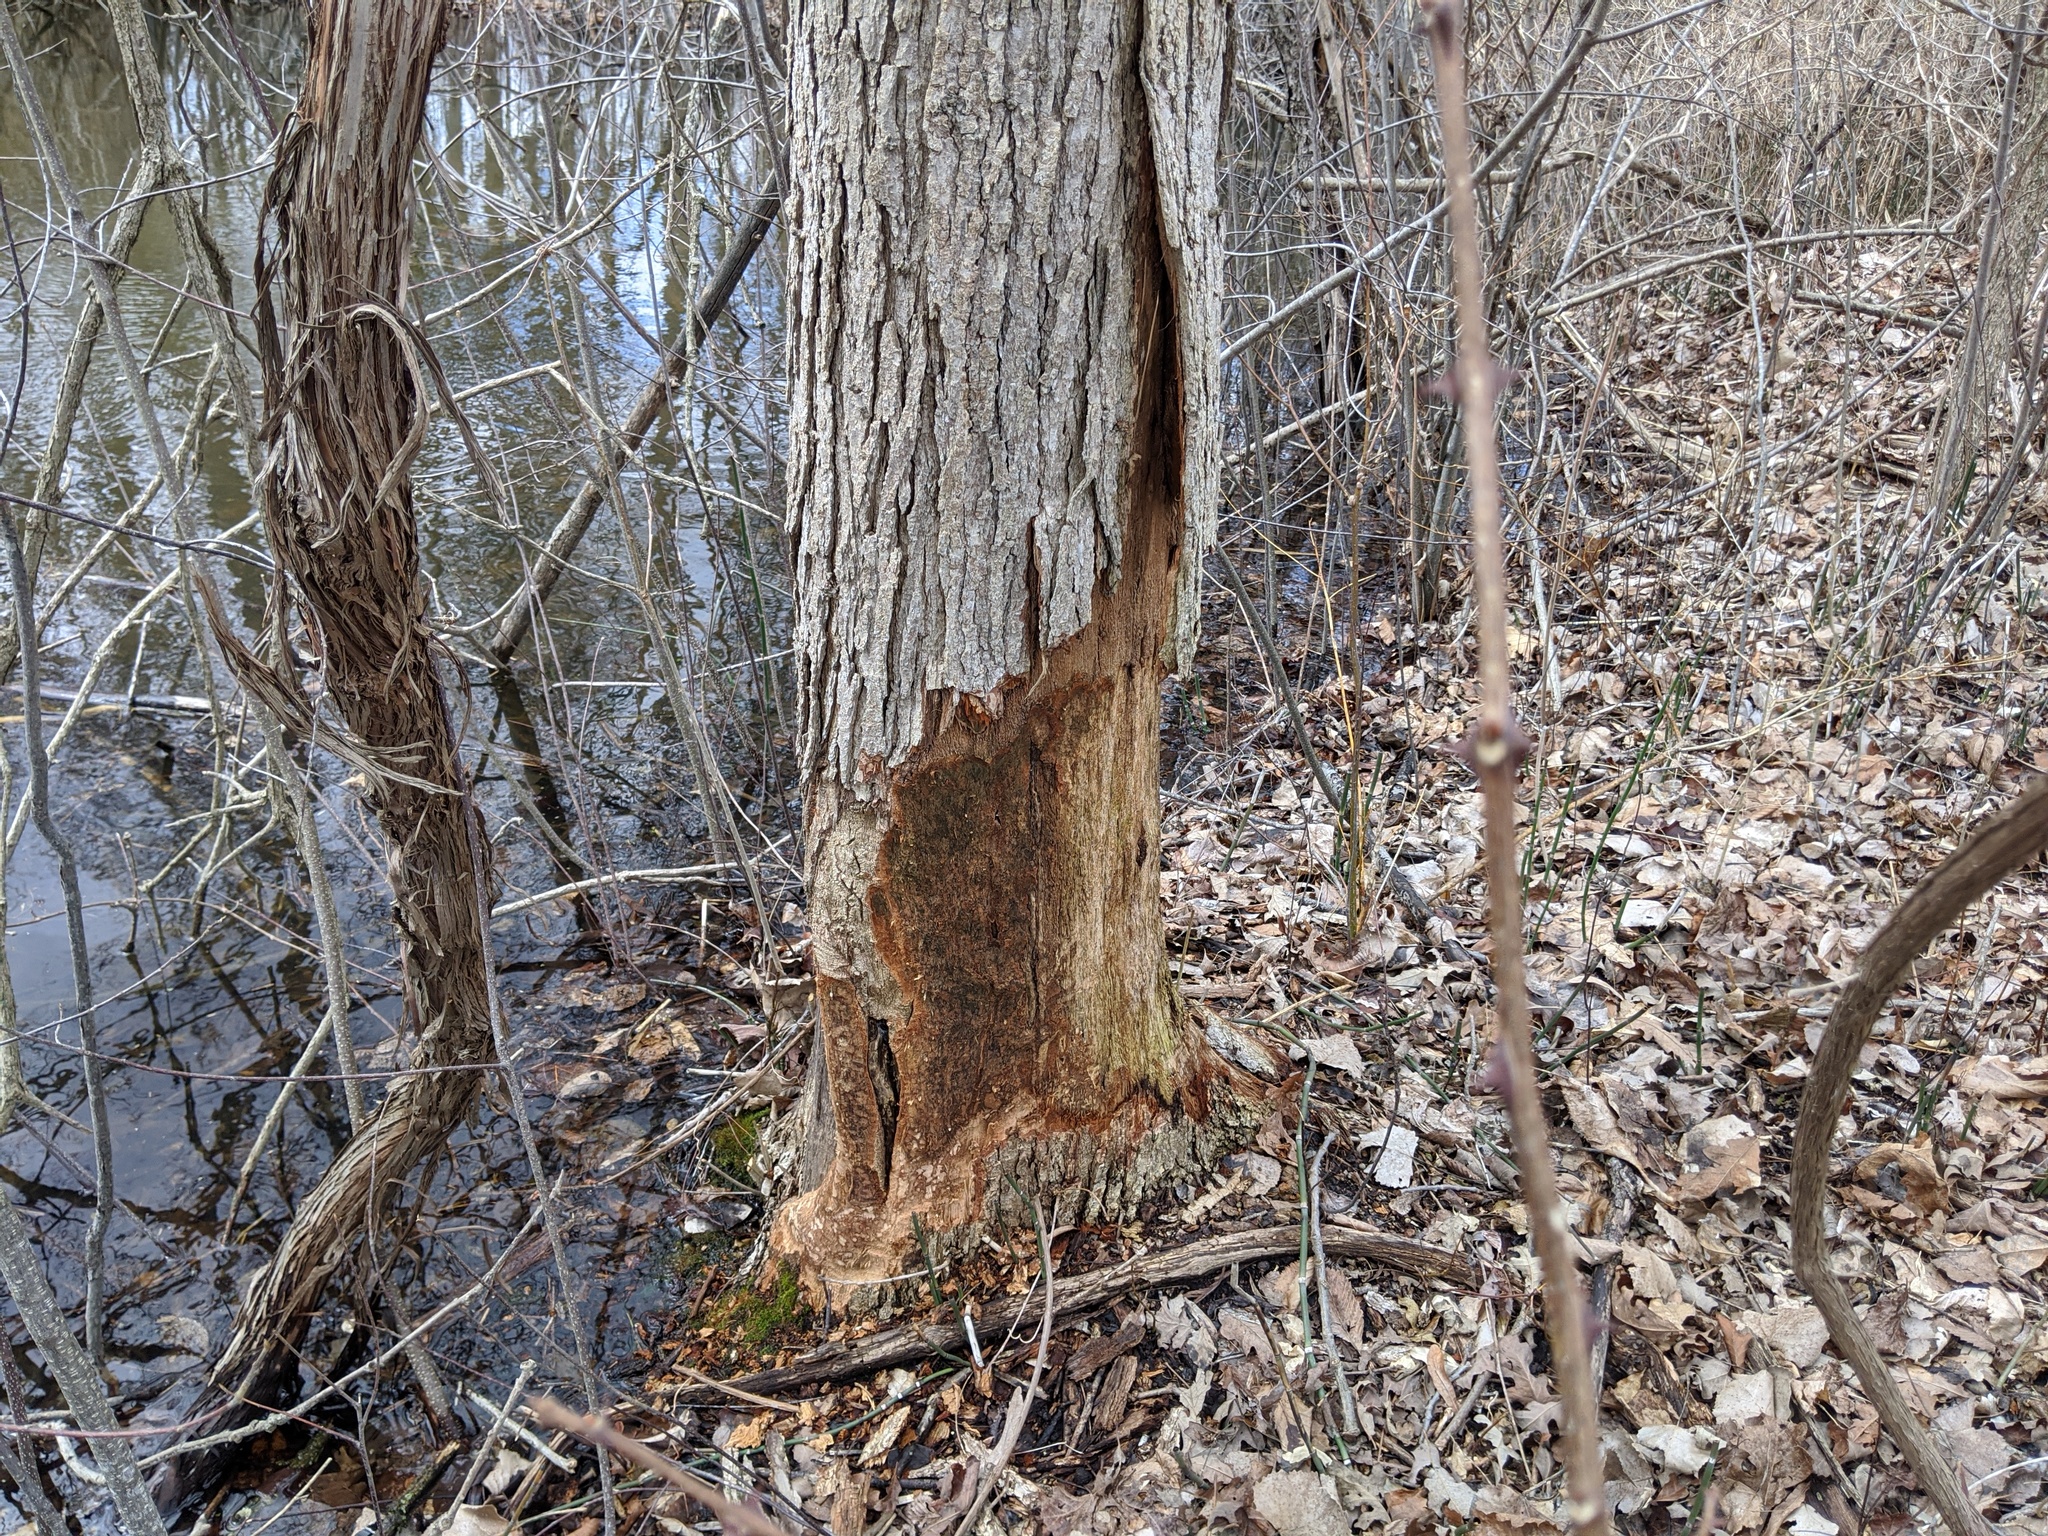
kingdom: Animalia
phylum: Chordata
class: Mammalia
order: Rodentia
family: Castoridae
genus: Castor
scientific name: Castor canadensis
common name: American beaver
